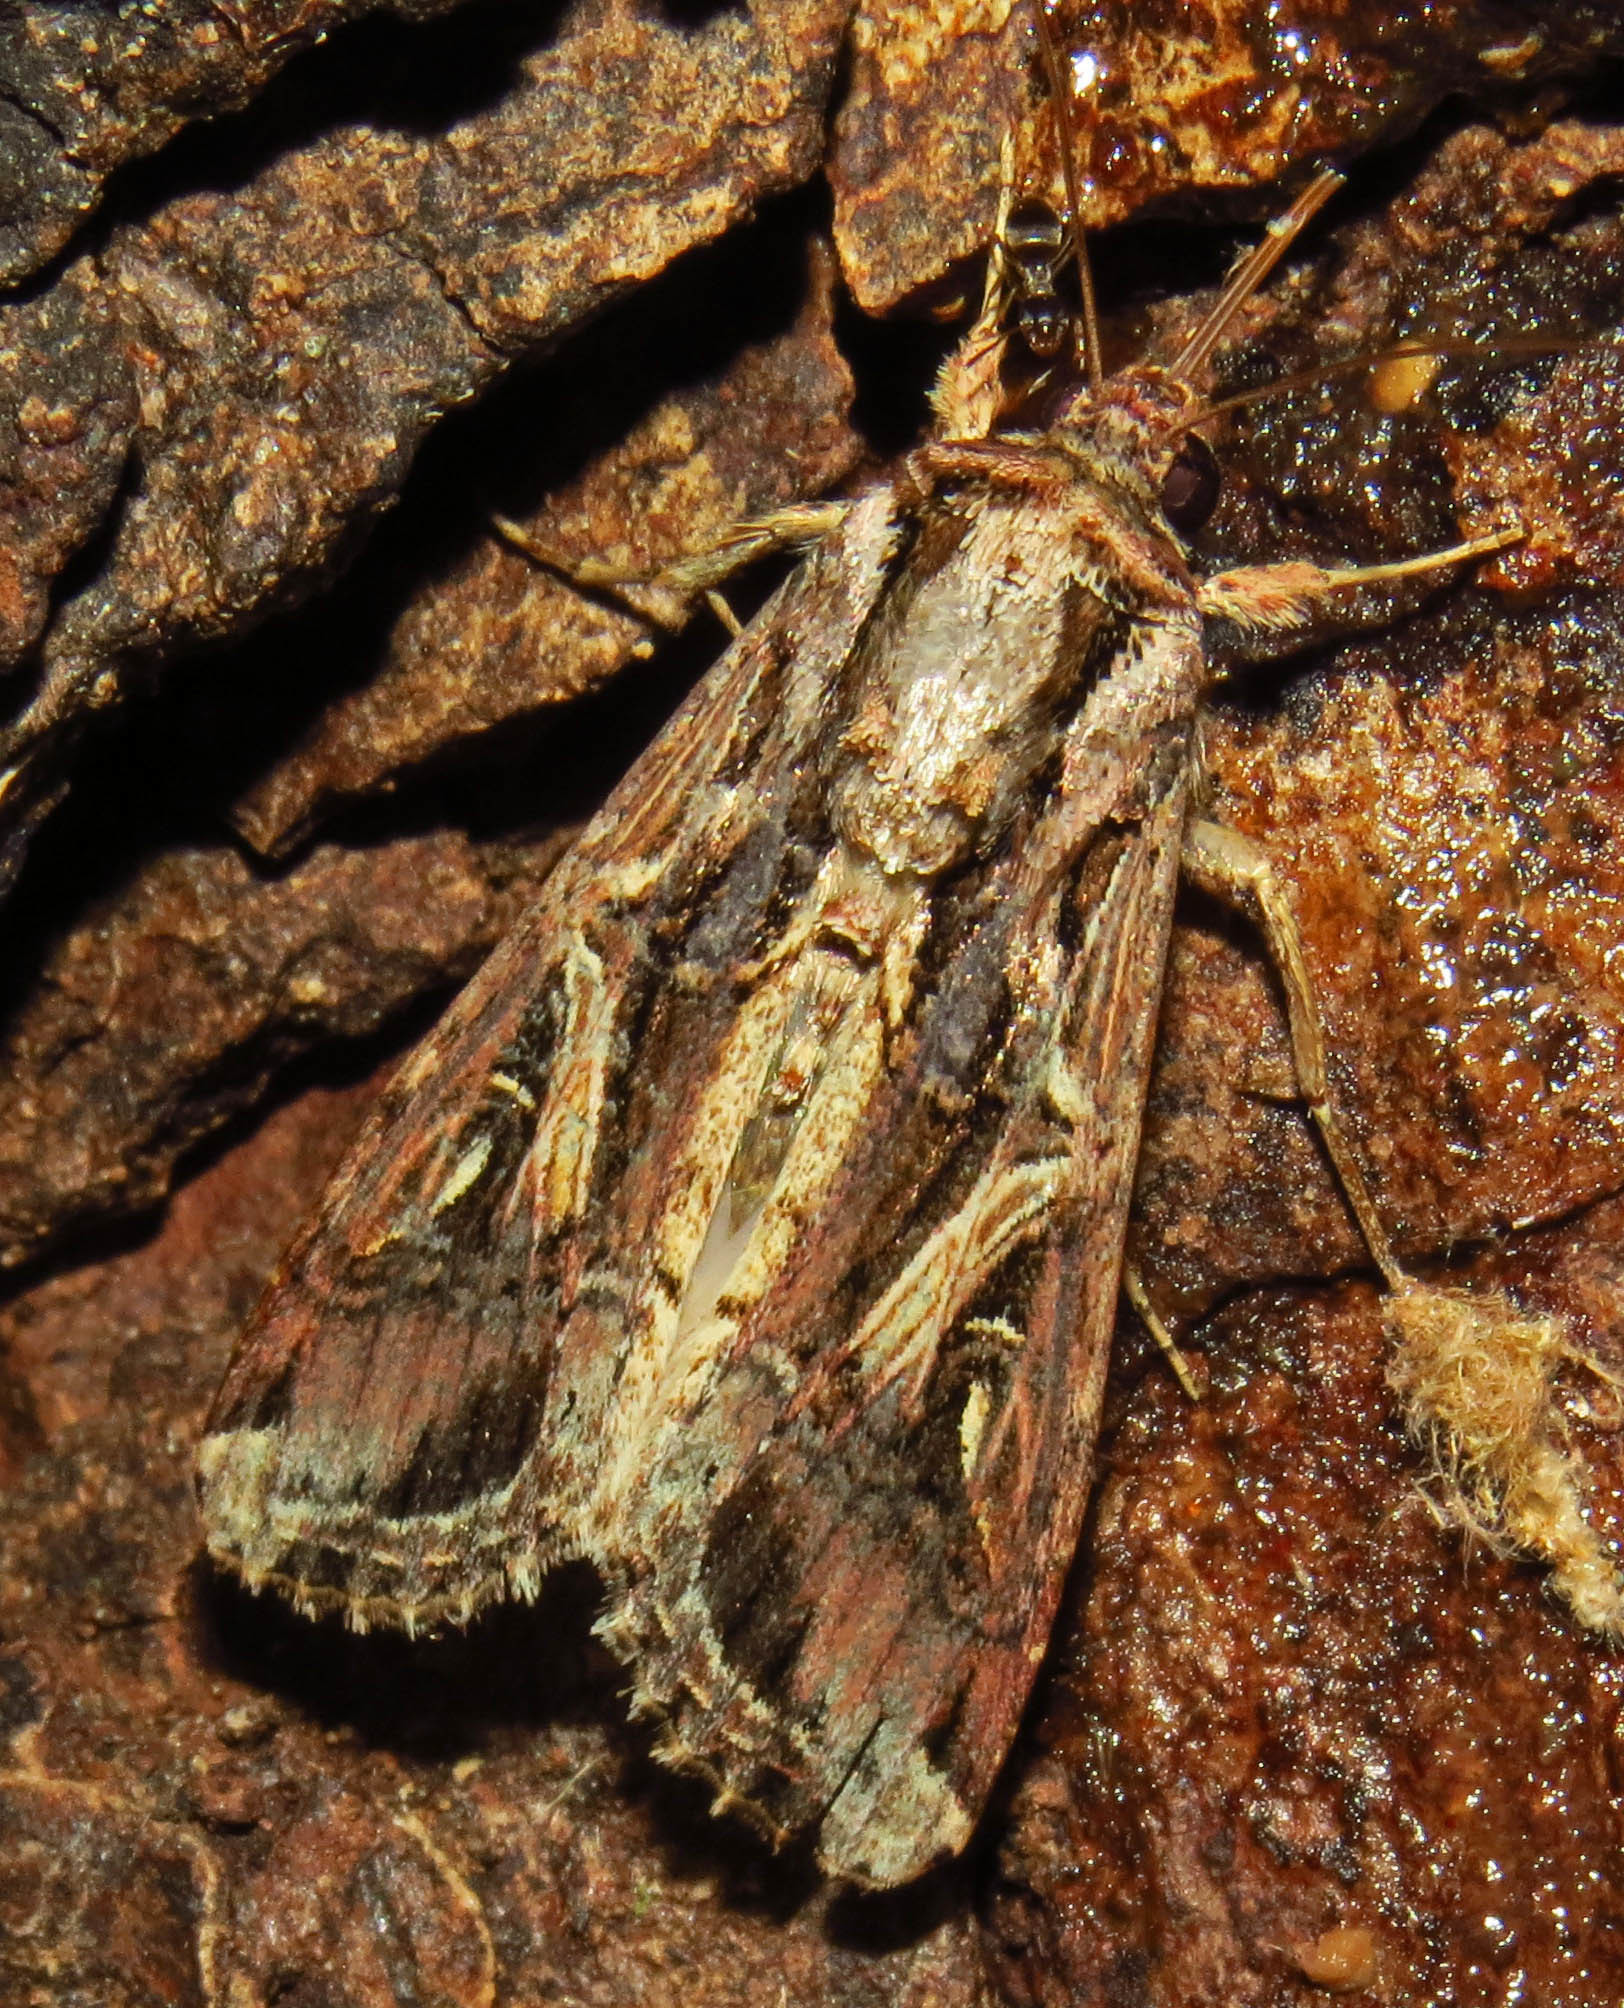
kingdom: Animalia
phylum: Arthropoda
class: Insecta
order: Lepidoptera
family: Noctuidae
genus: Spodoptera
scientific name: Spodoptera dolichos
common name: Sweetpotato armyworm
